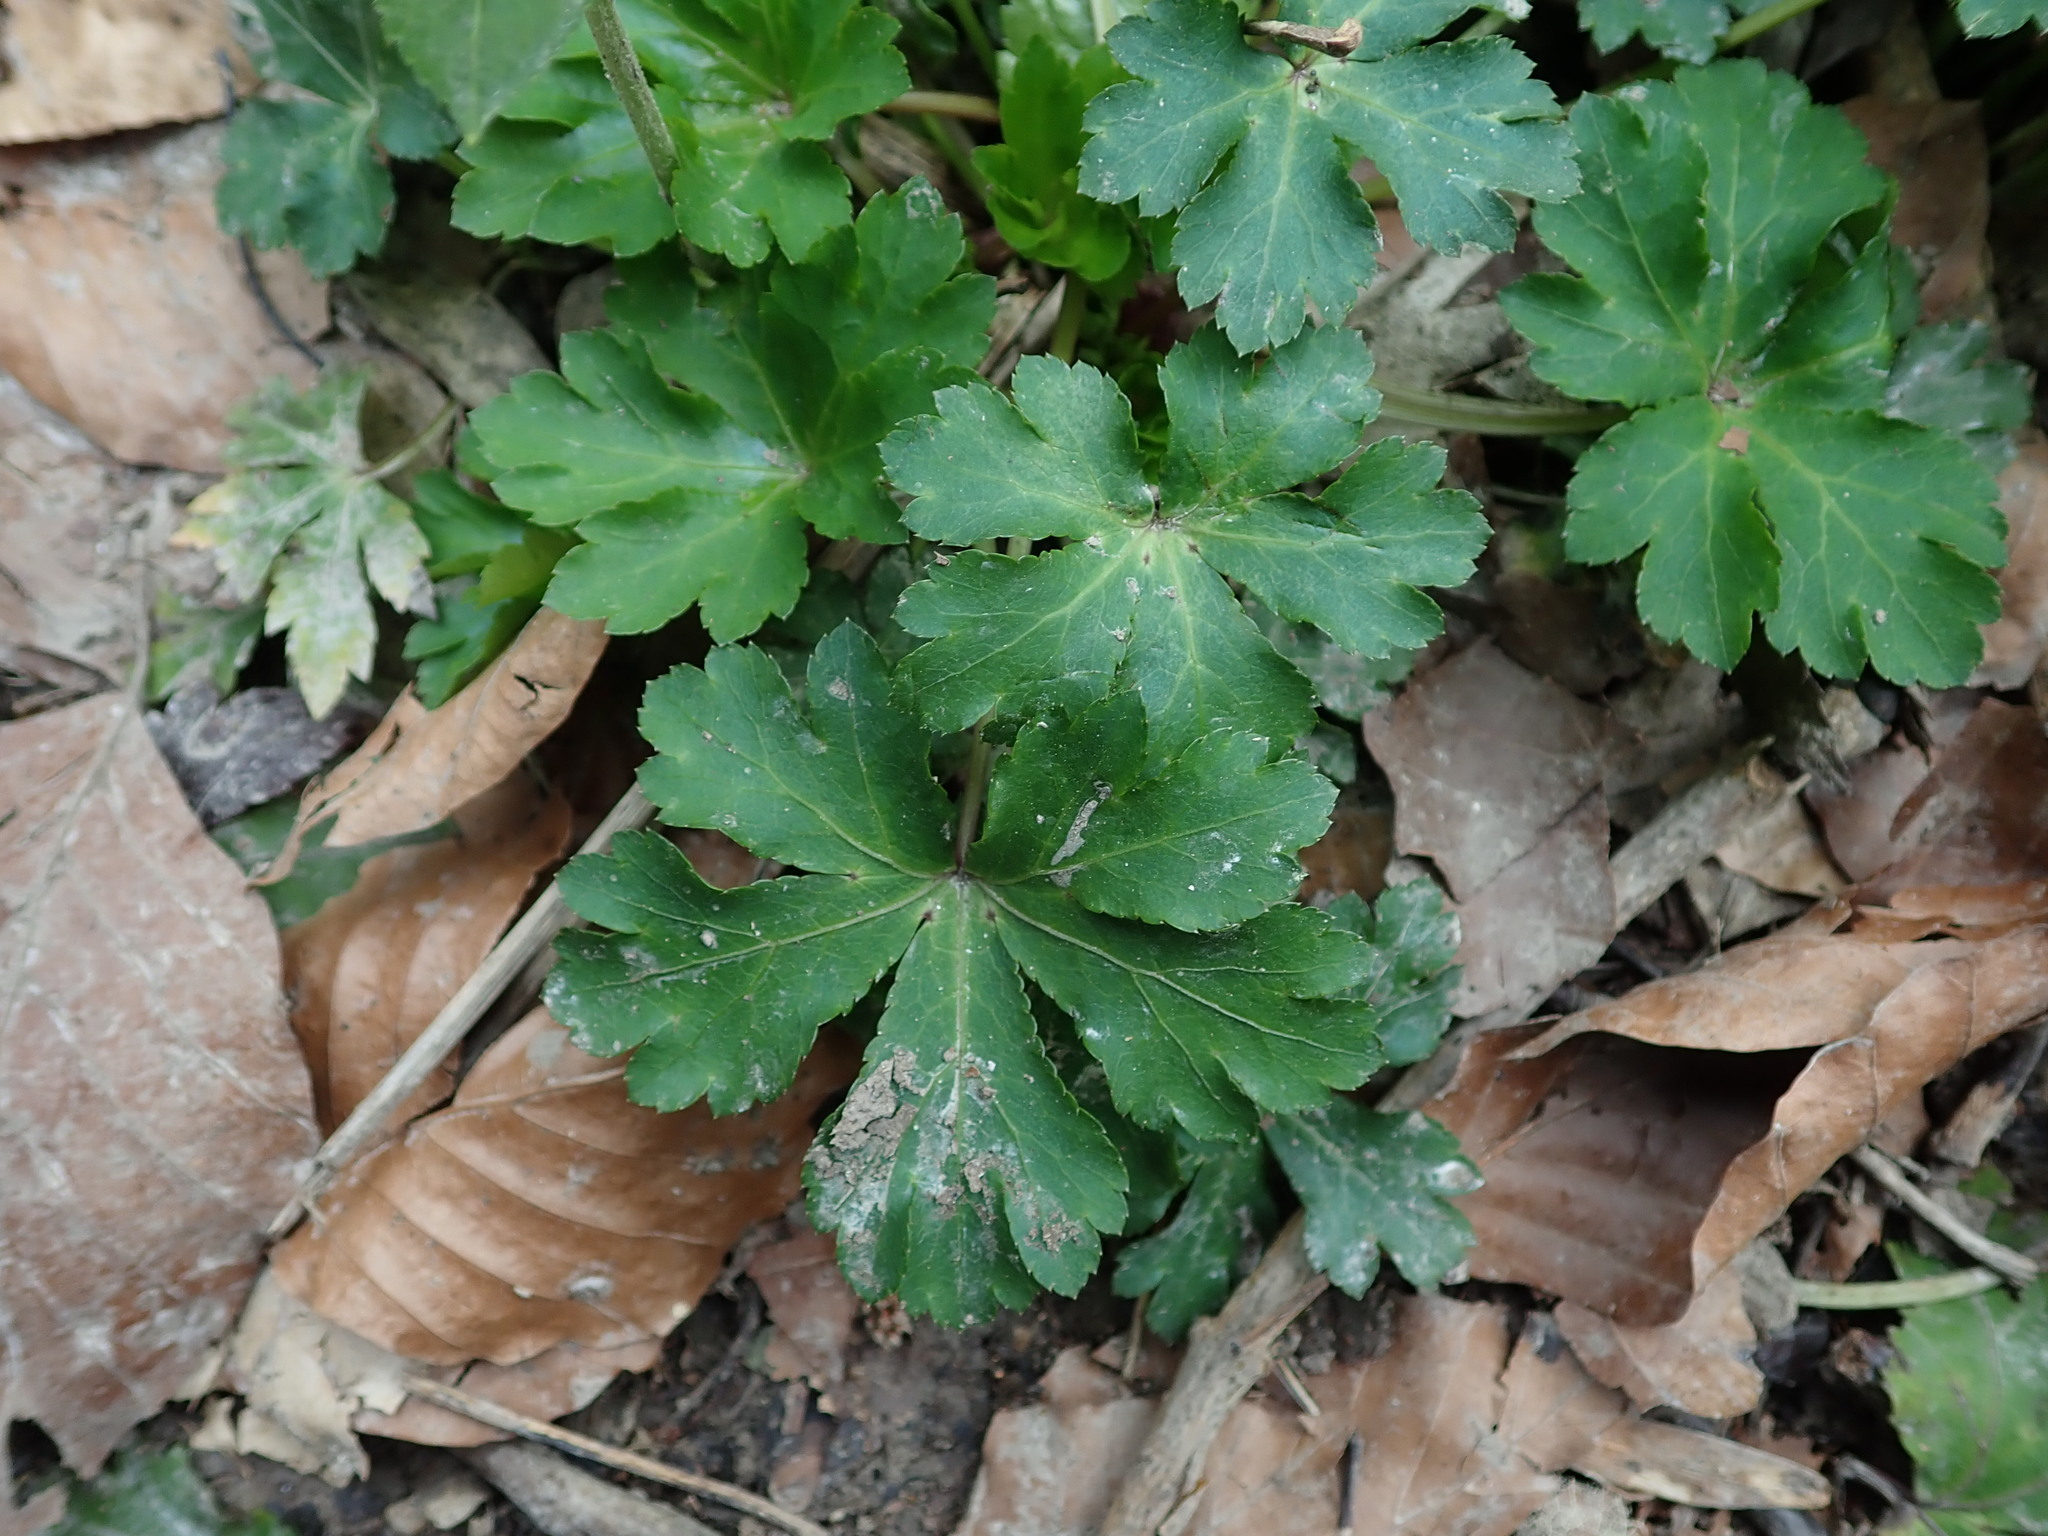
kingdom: Plantae
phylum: Tracheophyta
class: Magnoliopsida
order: Apiales
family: Apiaceae
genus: Sanicula
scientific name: Sanicula europaea
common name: Sanicle
